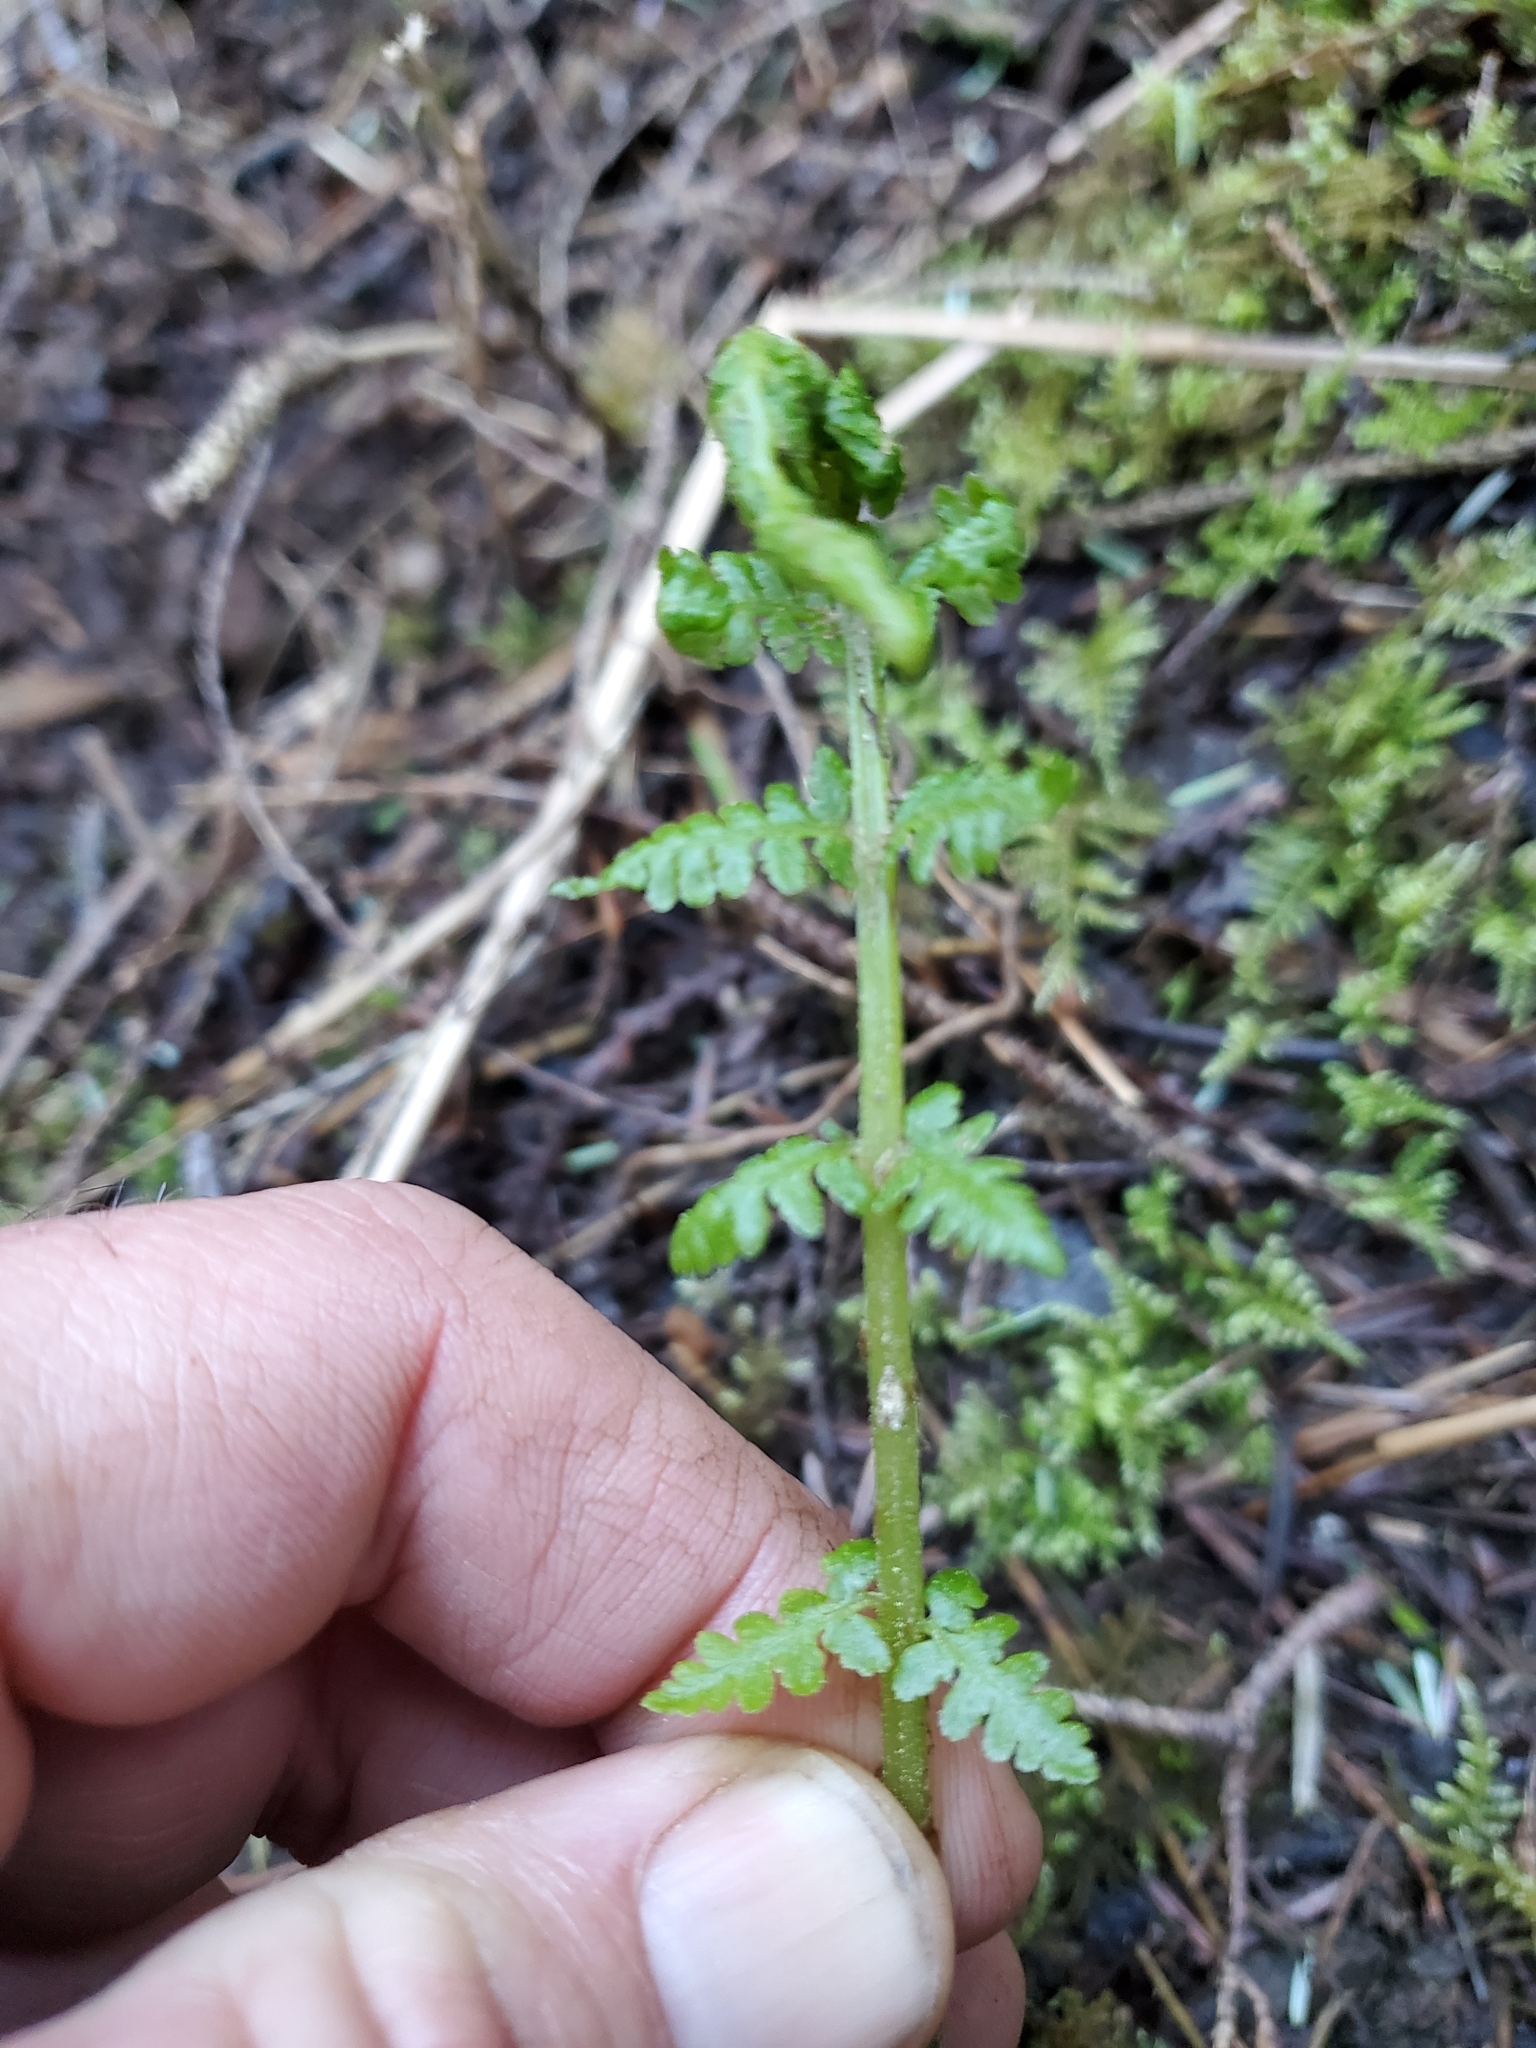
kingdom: Plantae
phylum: Tracheophyta
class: Polypodiopsida
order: Polypodiales
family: Athyriaceae
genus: Athyrium
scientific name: Athyrium filix-femina
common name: Lady fern
